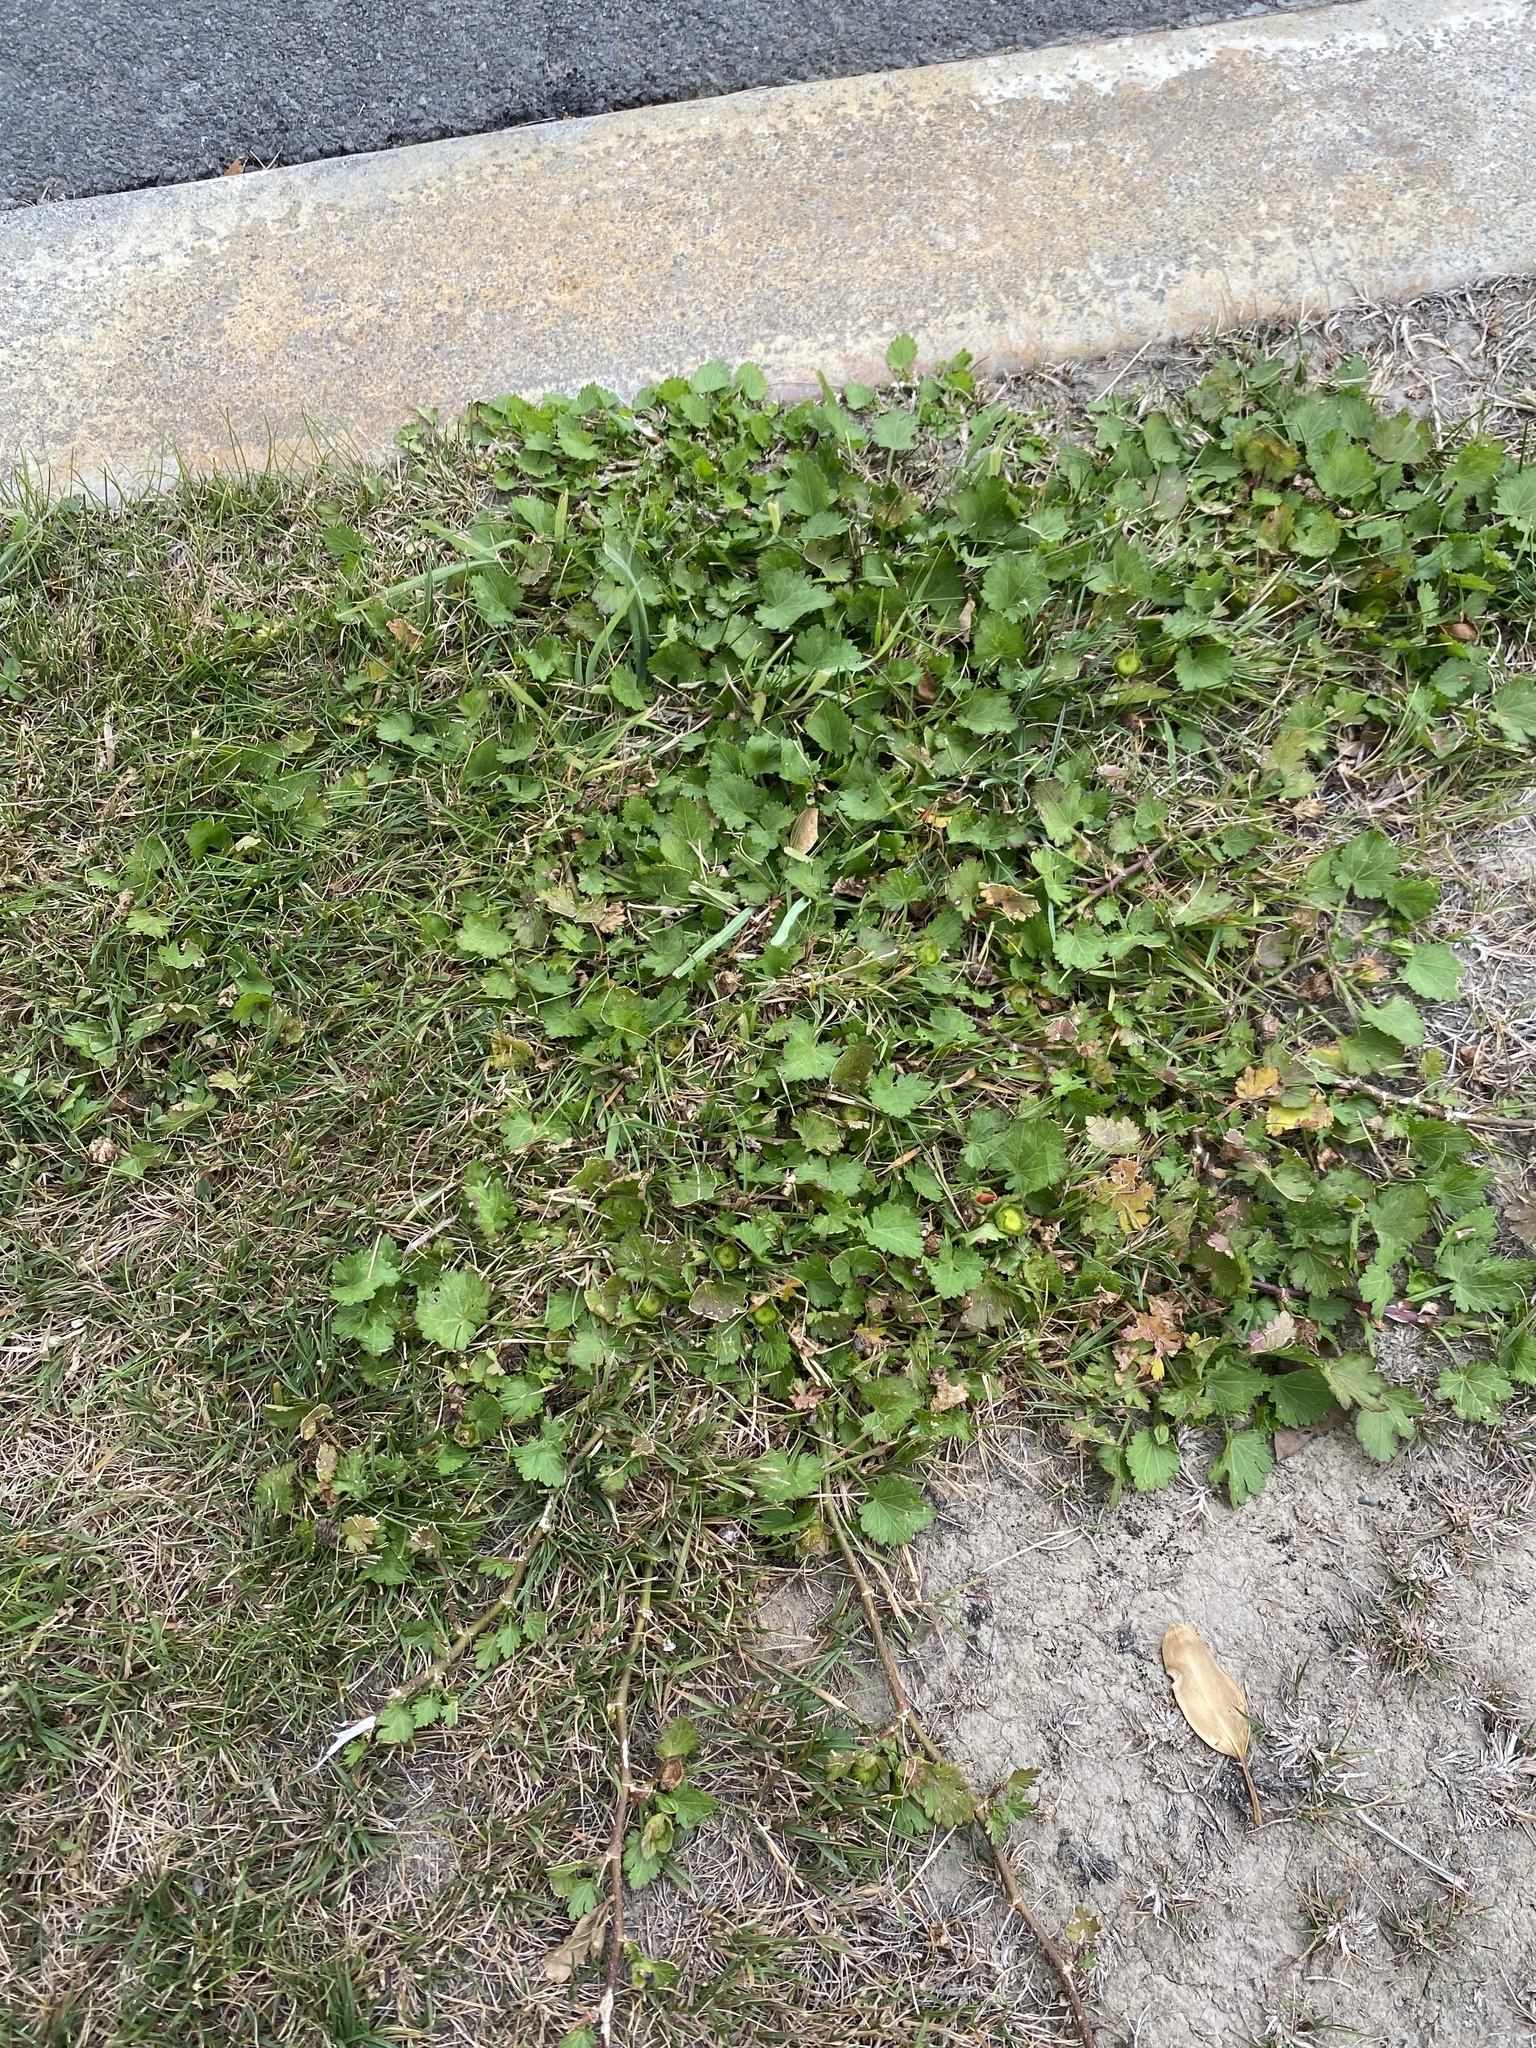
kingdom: Plantae
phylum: Tracheophyta
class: Magnoliopsida
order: Malvales
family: Malvaceae
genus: Modiola
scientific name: Modiola caroliniana
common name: Carolina bristlemallow
